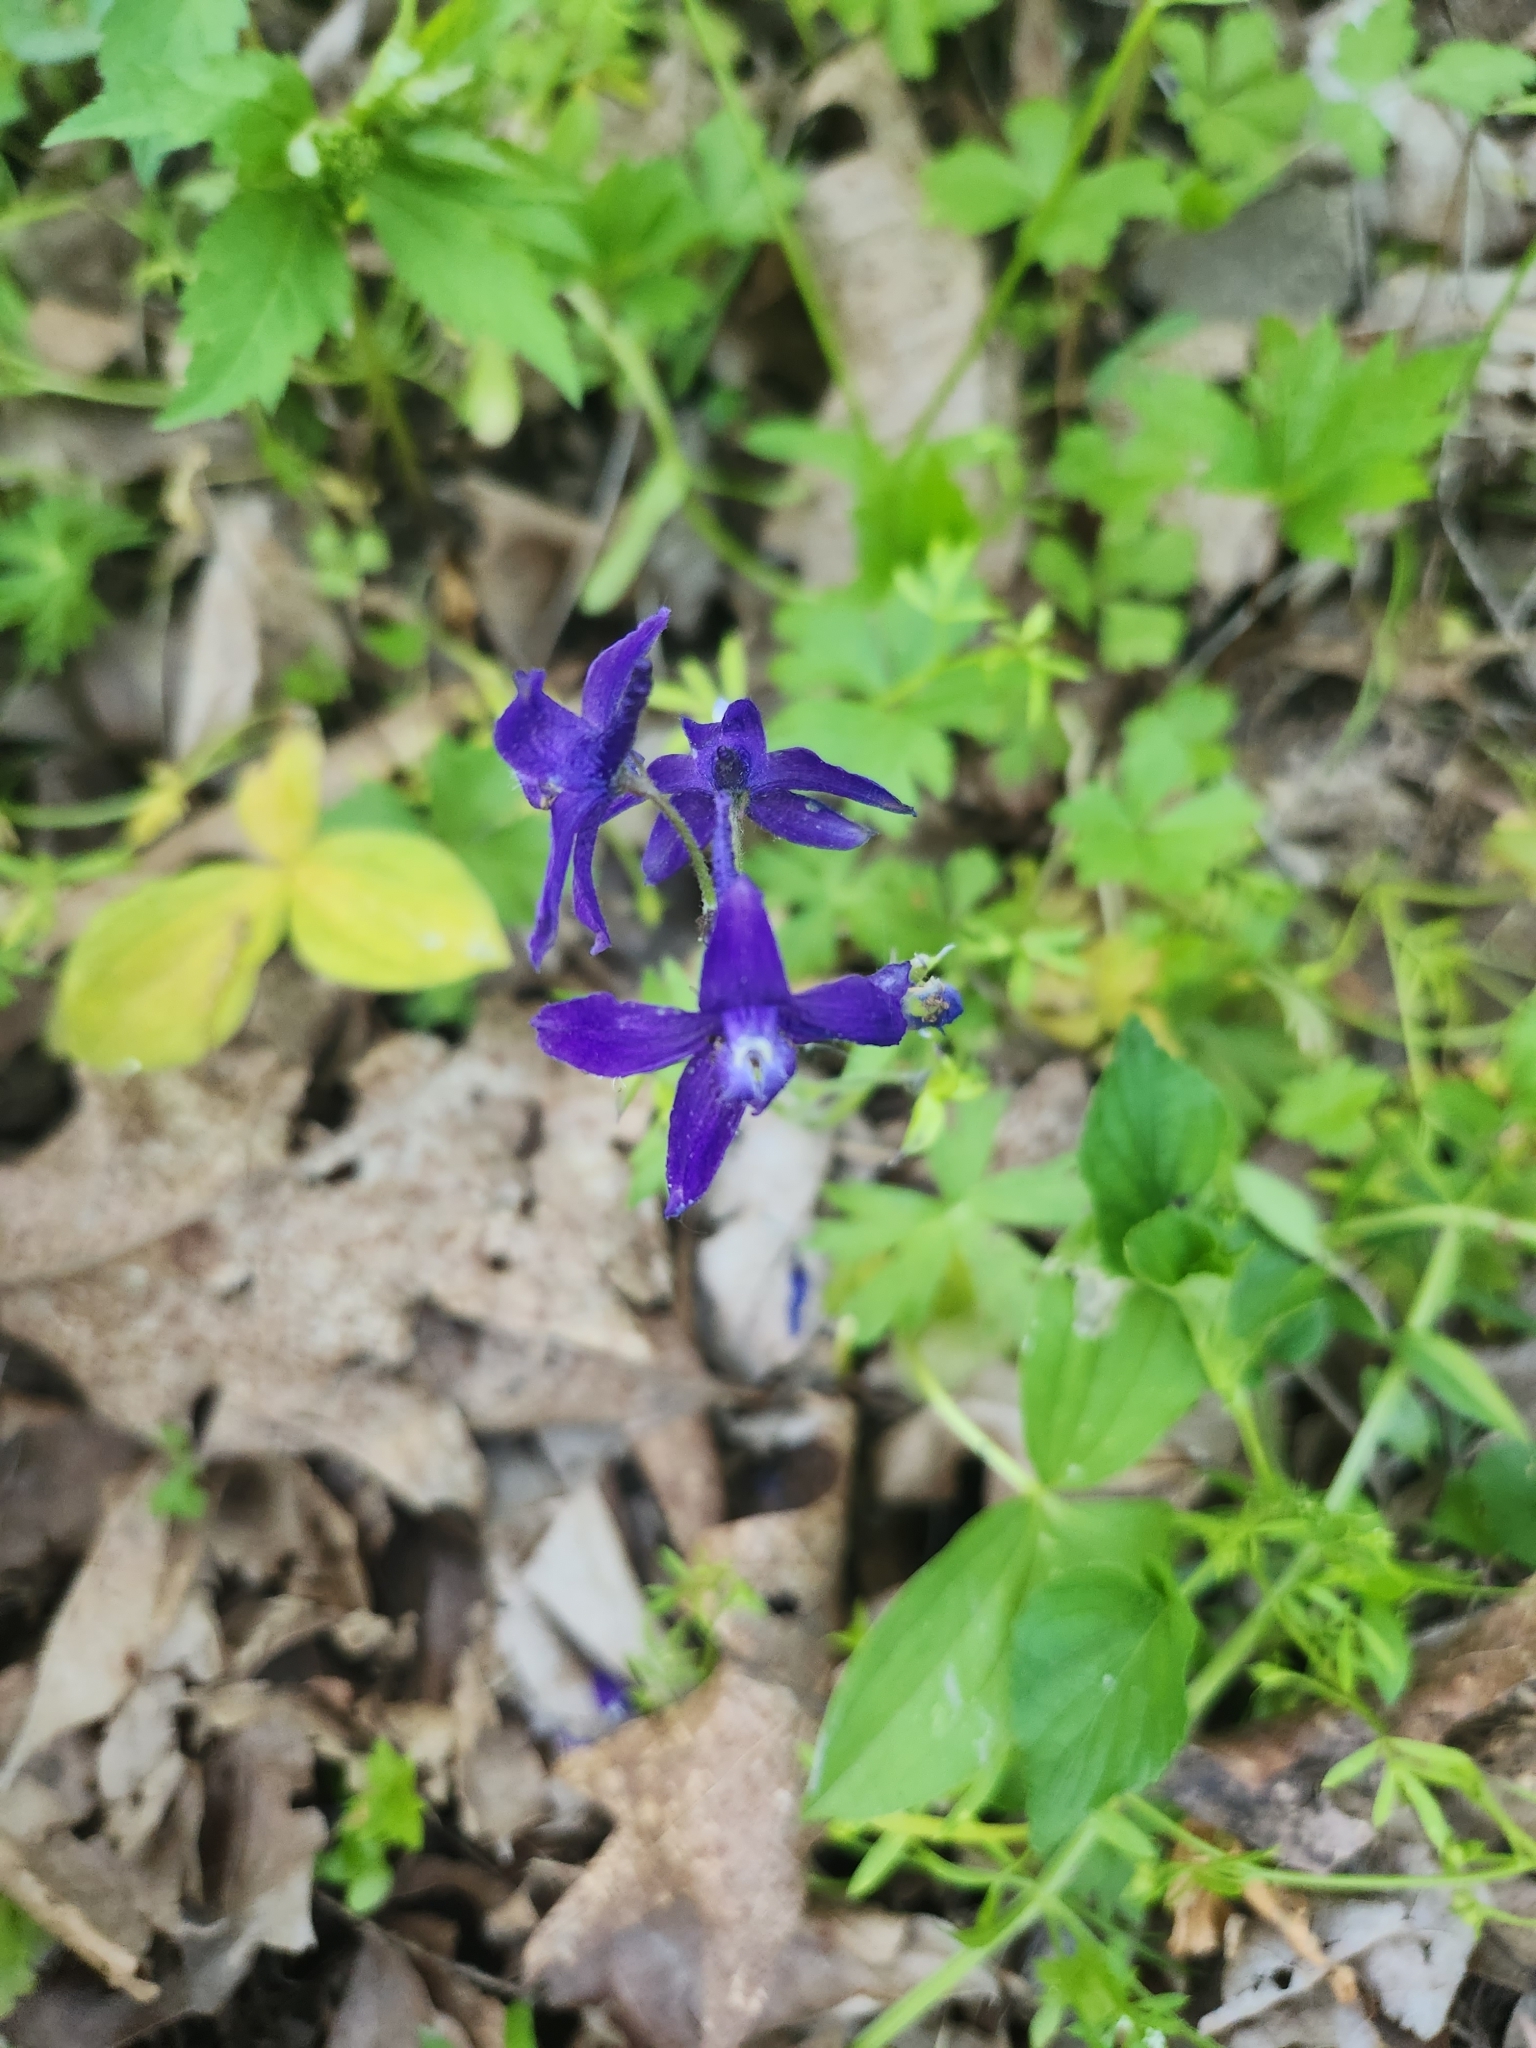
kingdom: Plantae
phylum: Tracheophyta
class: Magnoliopsida
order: Ranunculales
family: Ranunculaceae
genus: Delphinium
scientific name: Delphinium tricorne
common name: Dwarf larkspur
